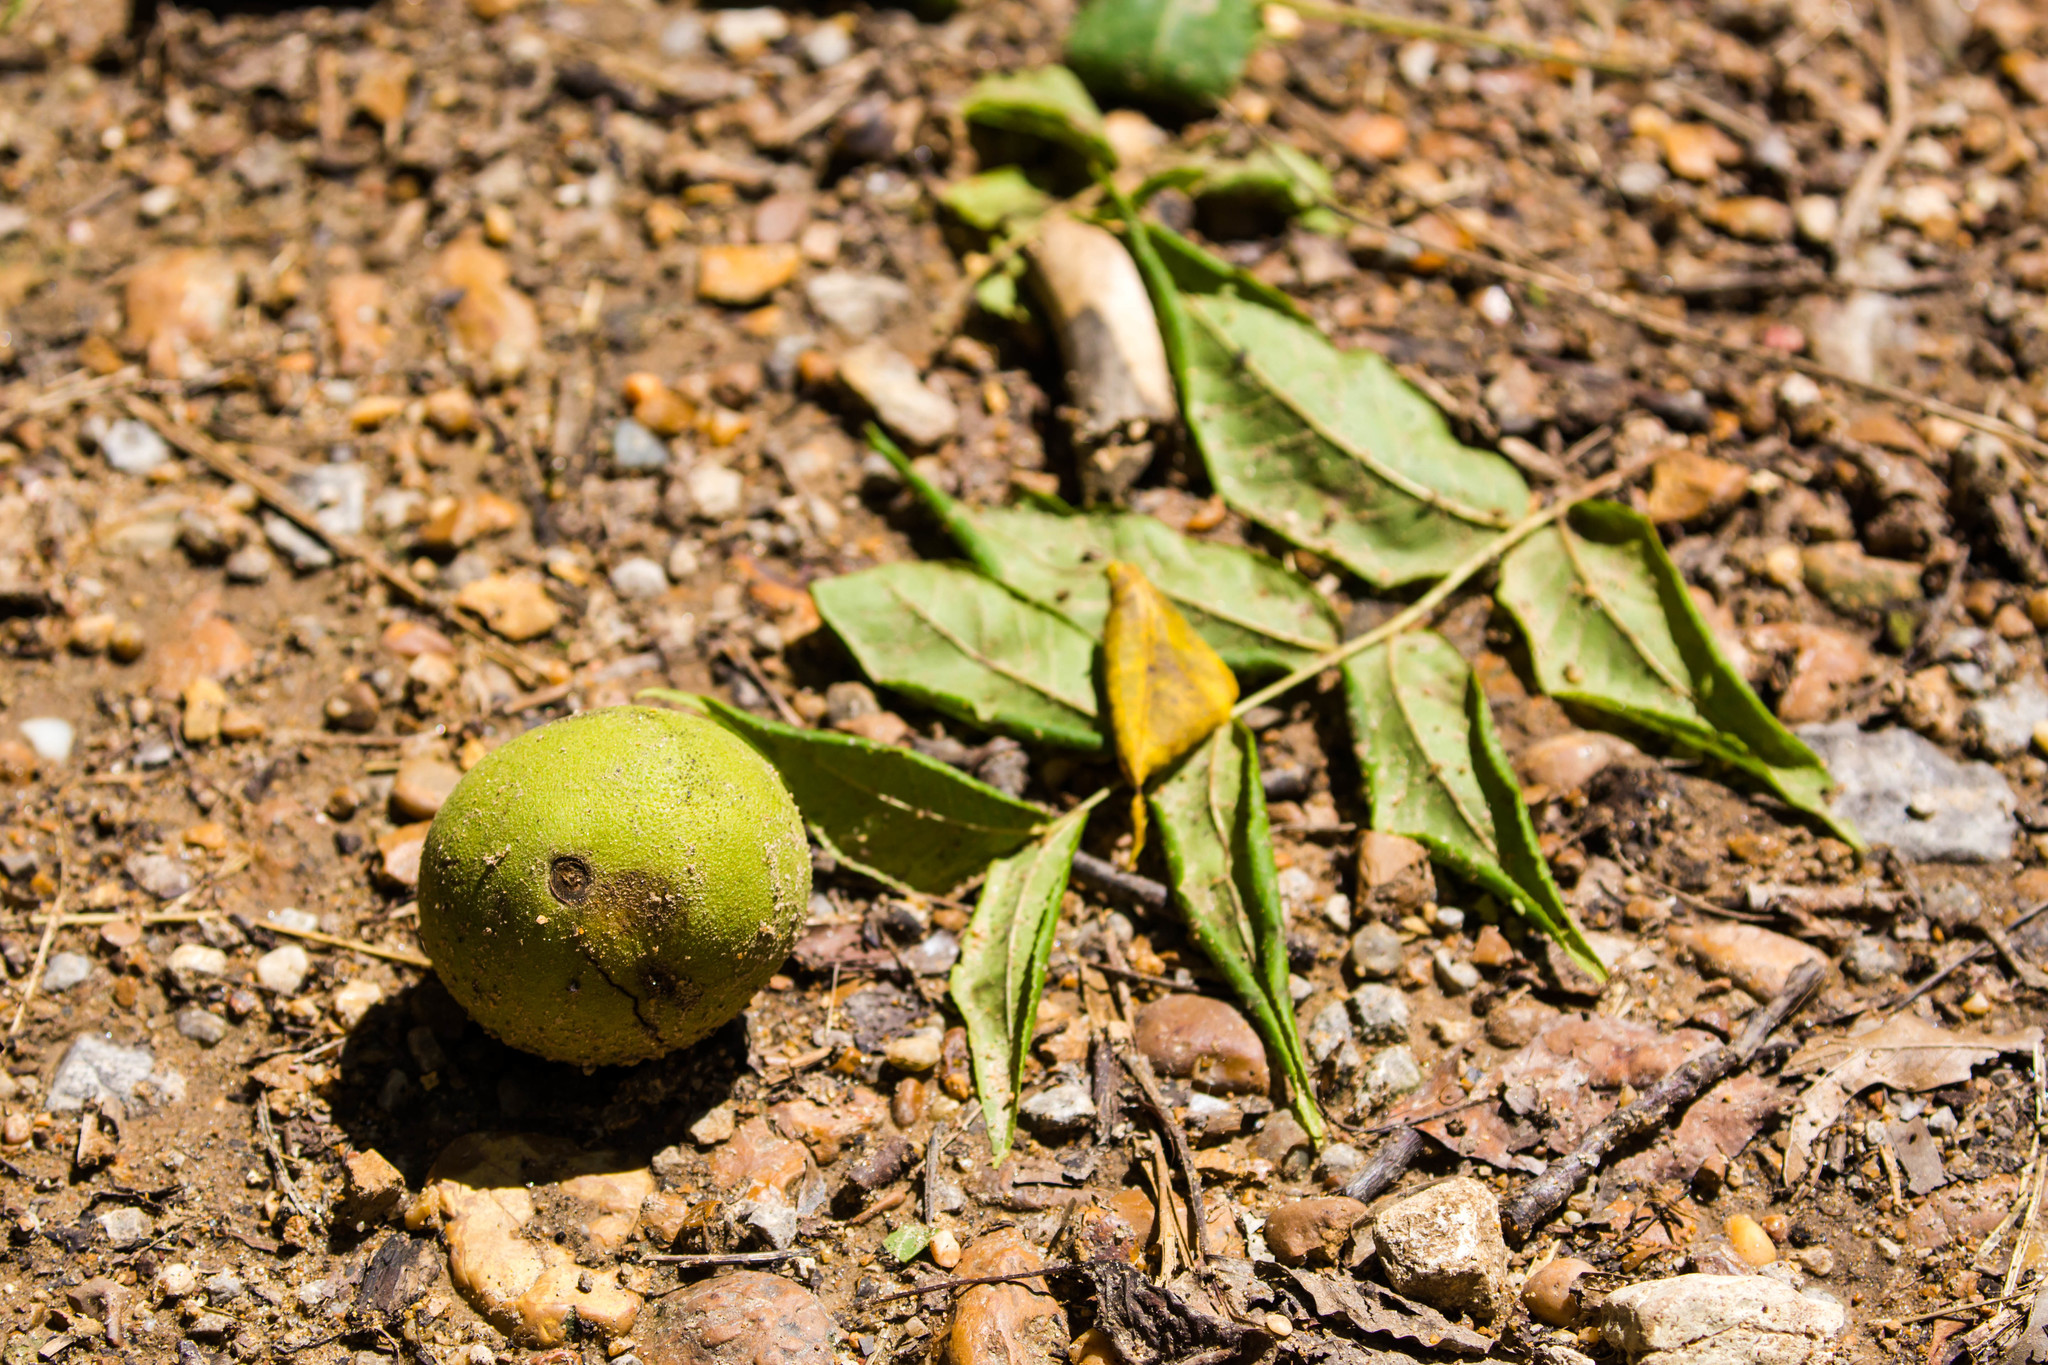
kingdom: Plantae
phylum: Tracheophyta
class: Magnoliopsida
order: Fagales
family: Juglandaceae
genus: Juglans
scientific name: Juglans nigra
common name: Black walnut
